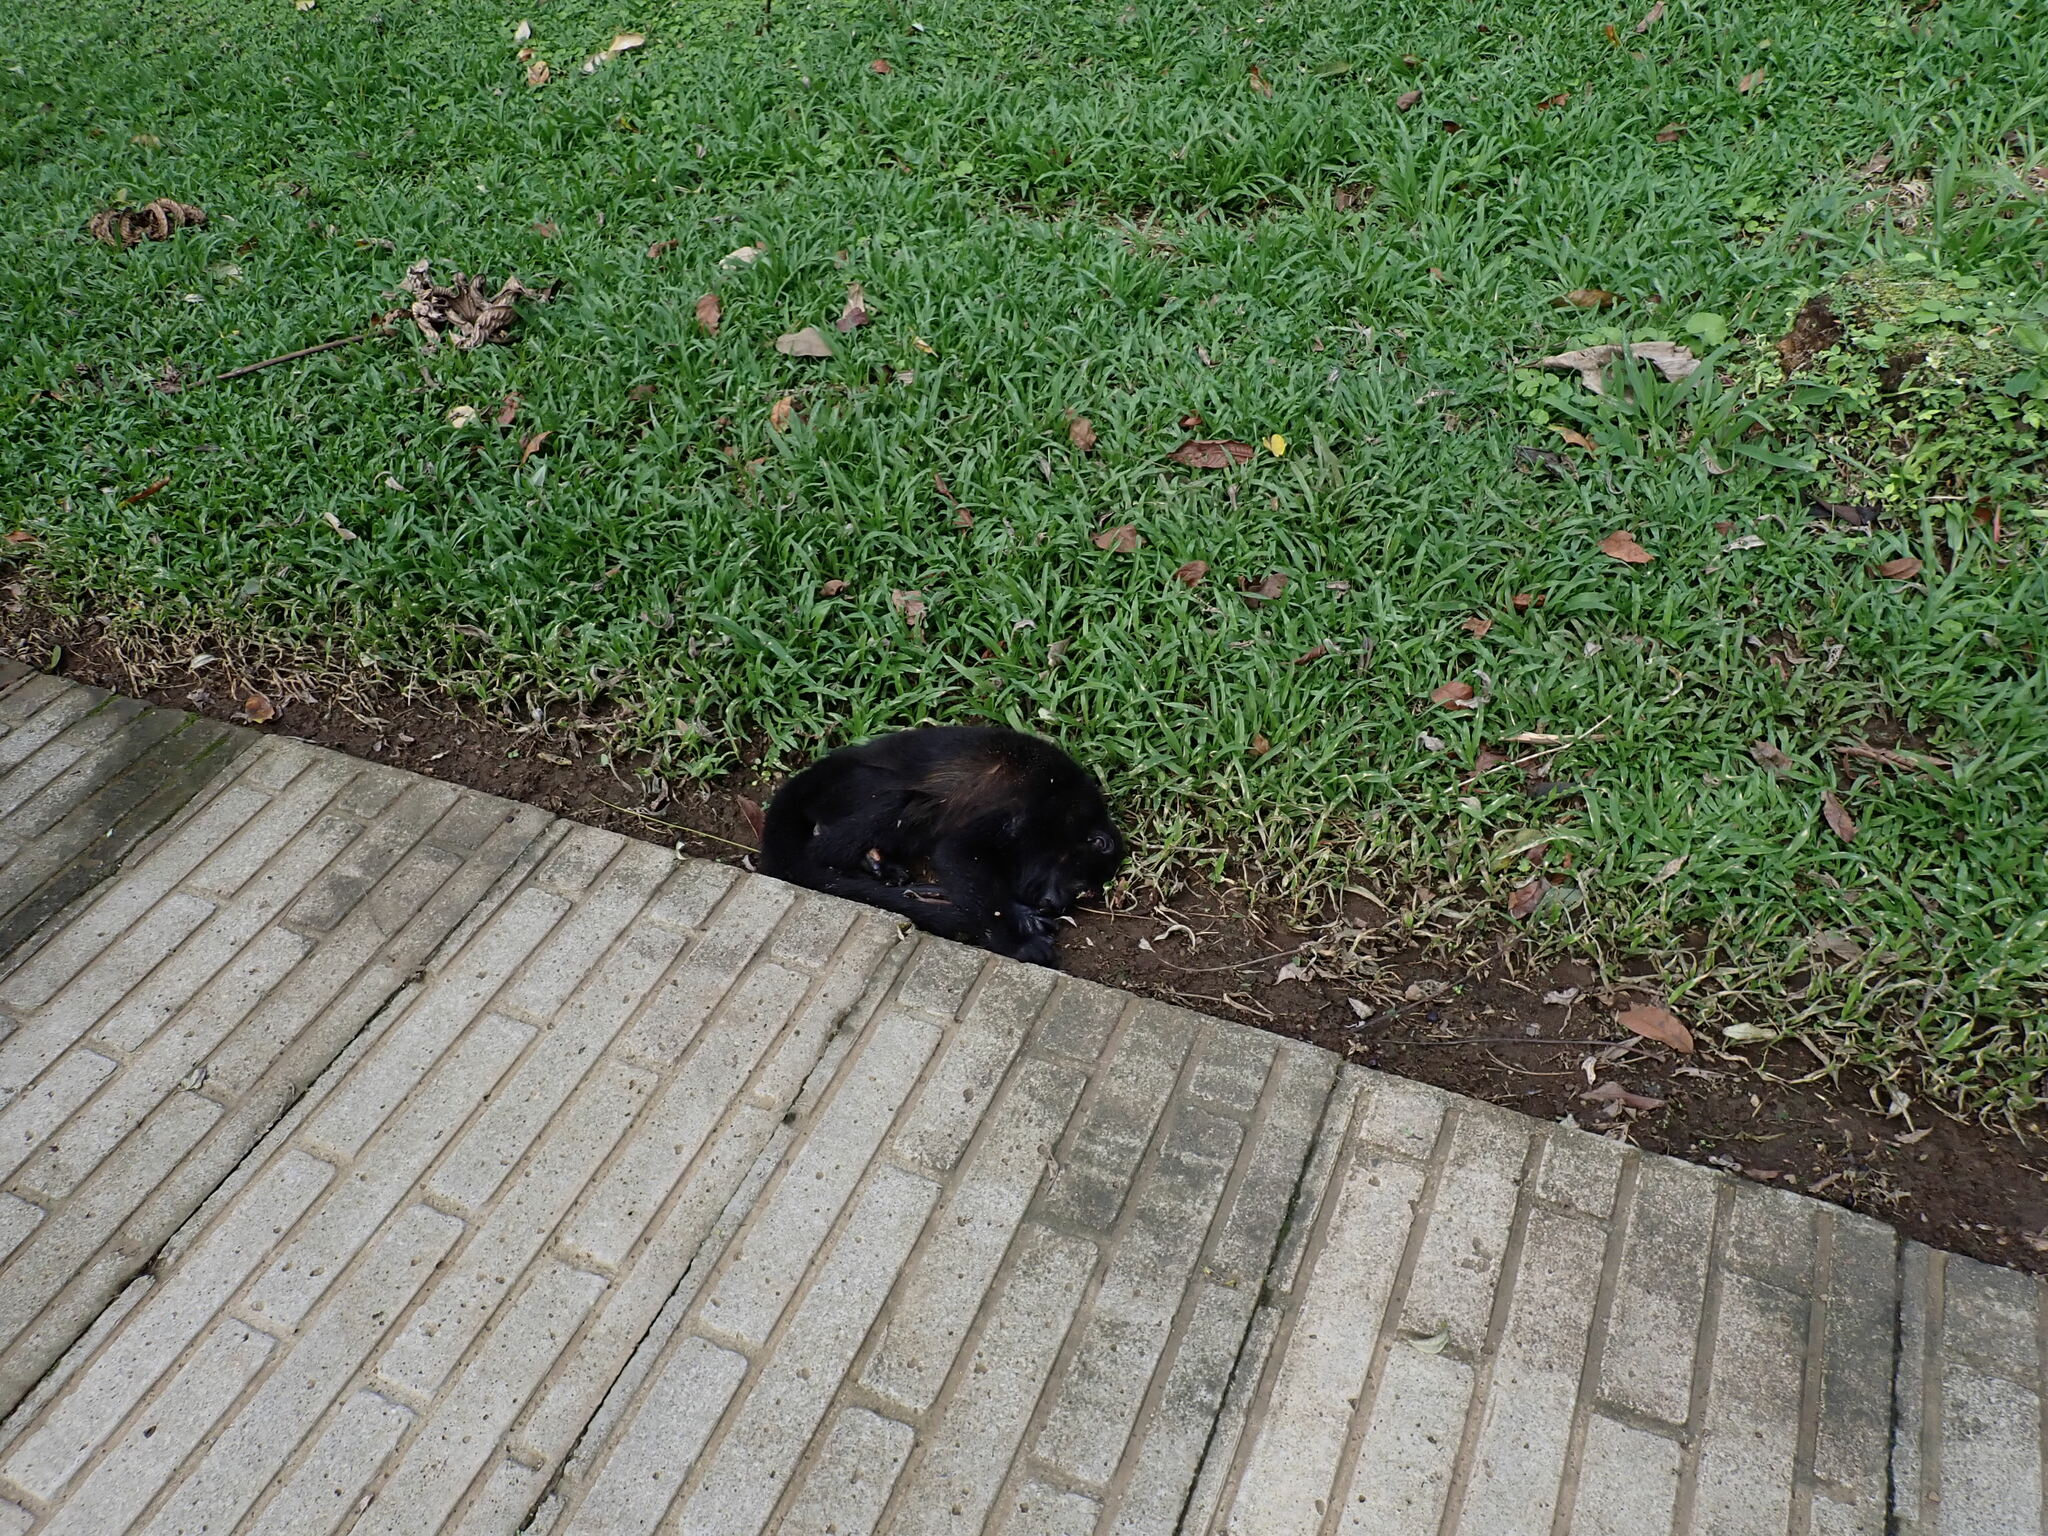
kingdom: Animalia
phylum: Chordata
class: Mammalia
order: Primates
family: Atelidae
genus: Alouatta
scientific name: Alouatta palliata
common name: Mantled howler
